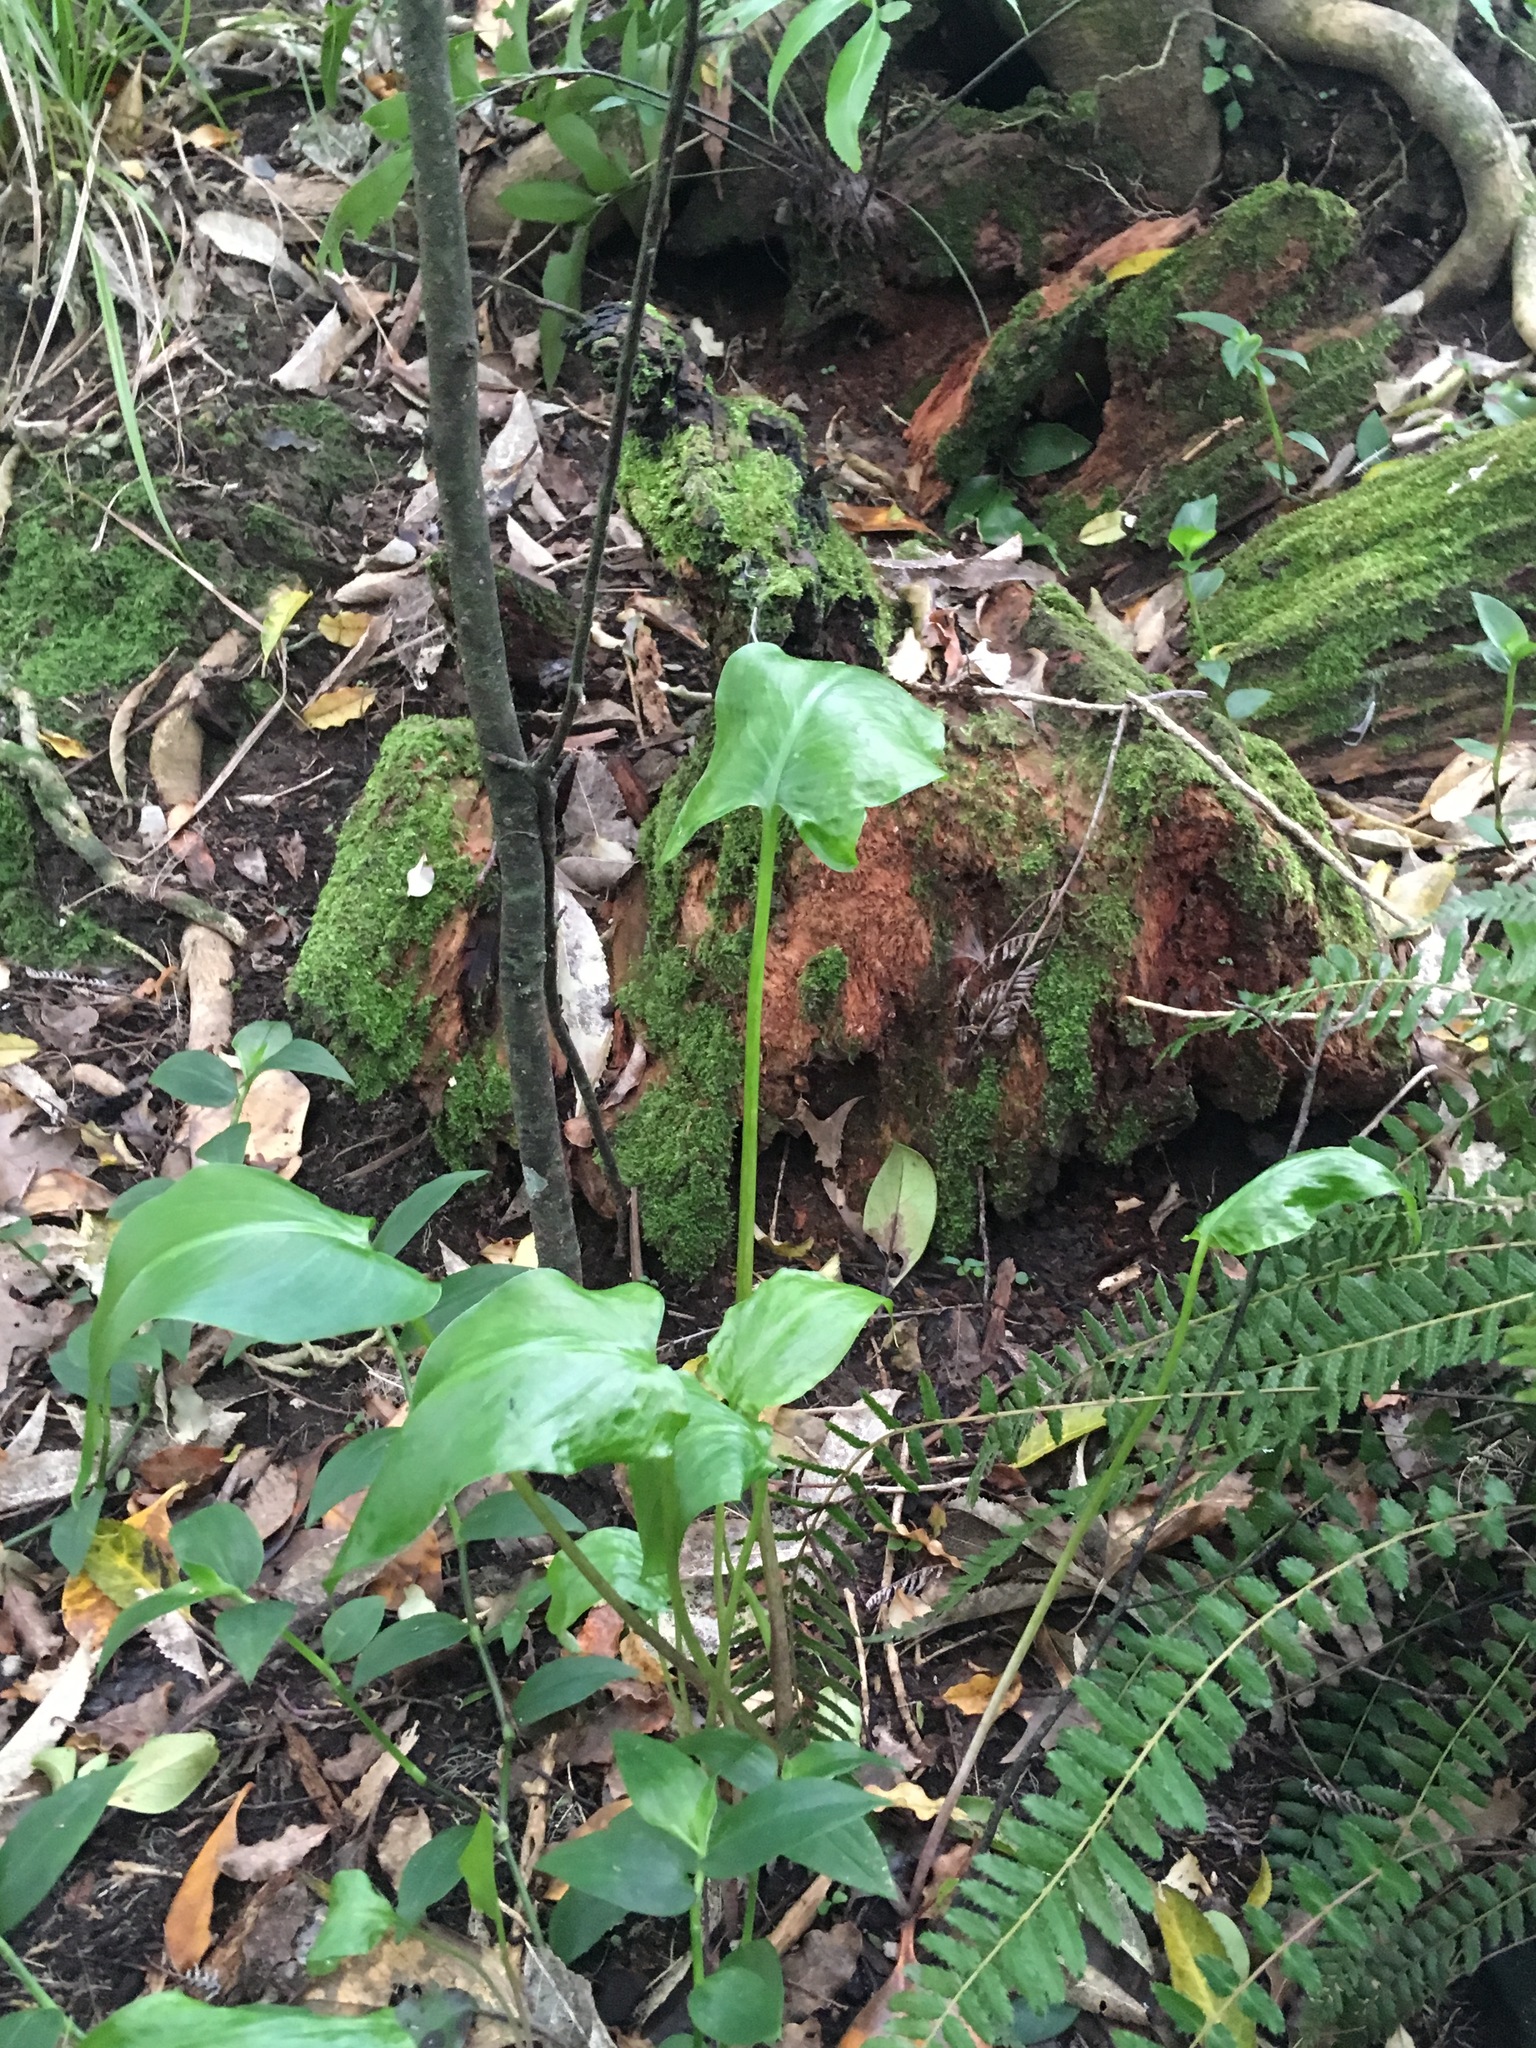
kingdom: Plantae
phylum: Tracheophyta
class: Liliopsida
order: Alismatales
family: Araceae
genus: Zantedeschia
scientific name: Zantedeschia aethiopica
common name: Altar-lily
